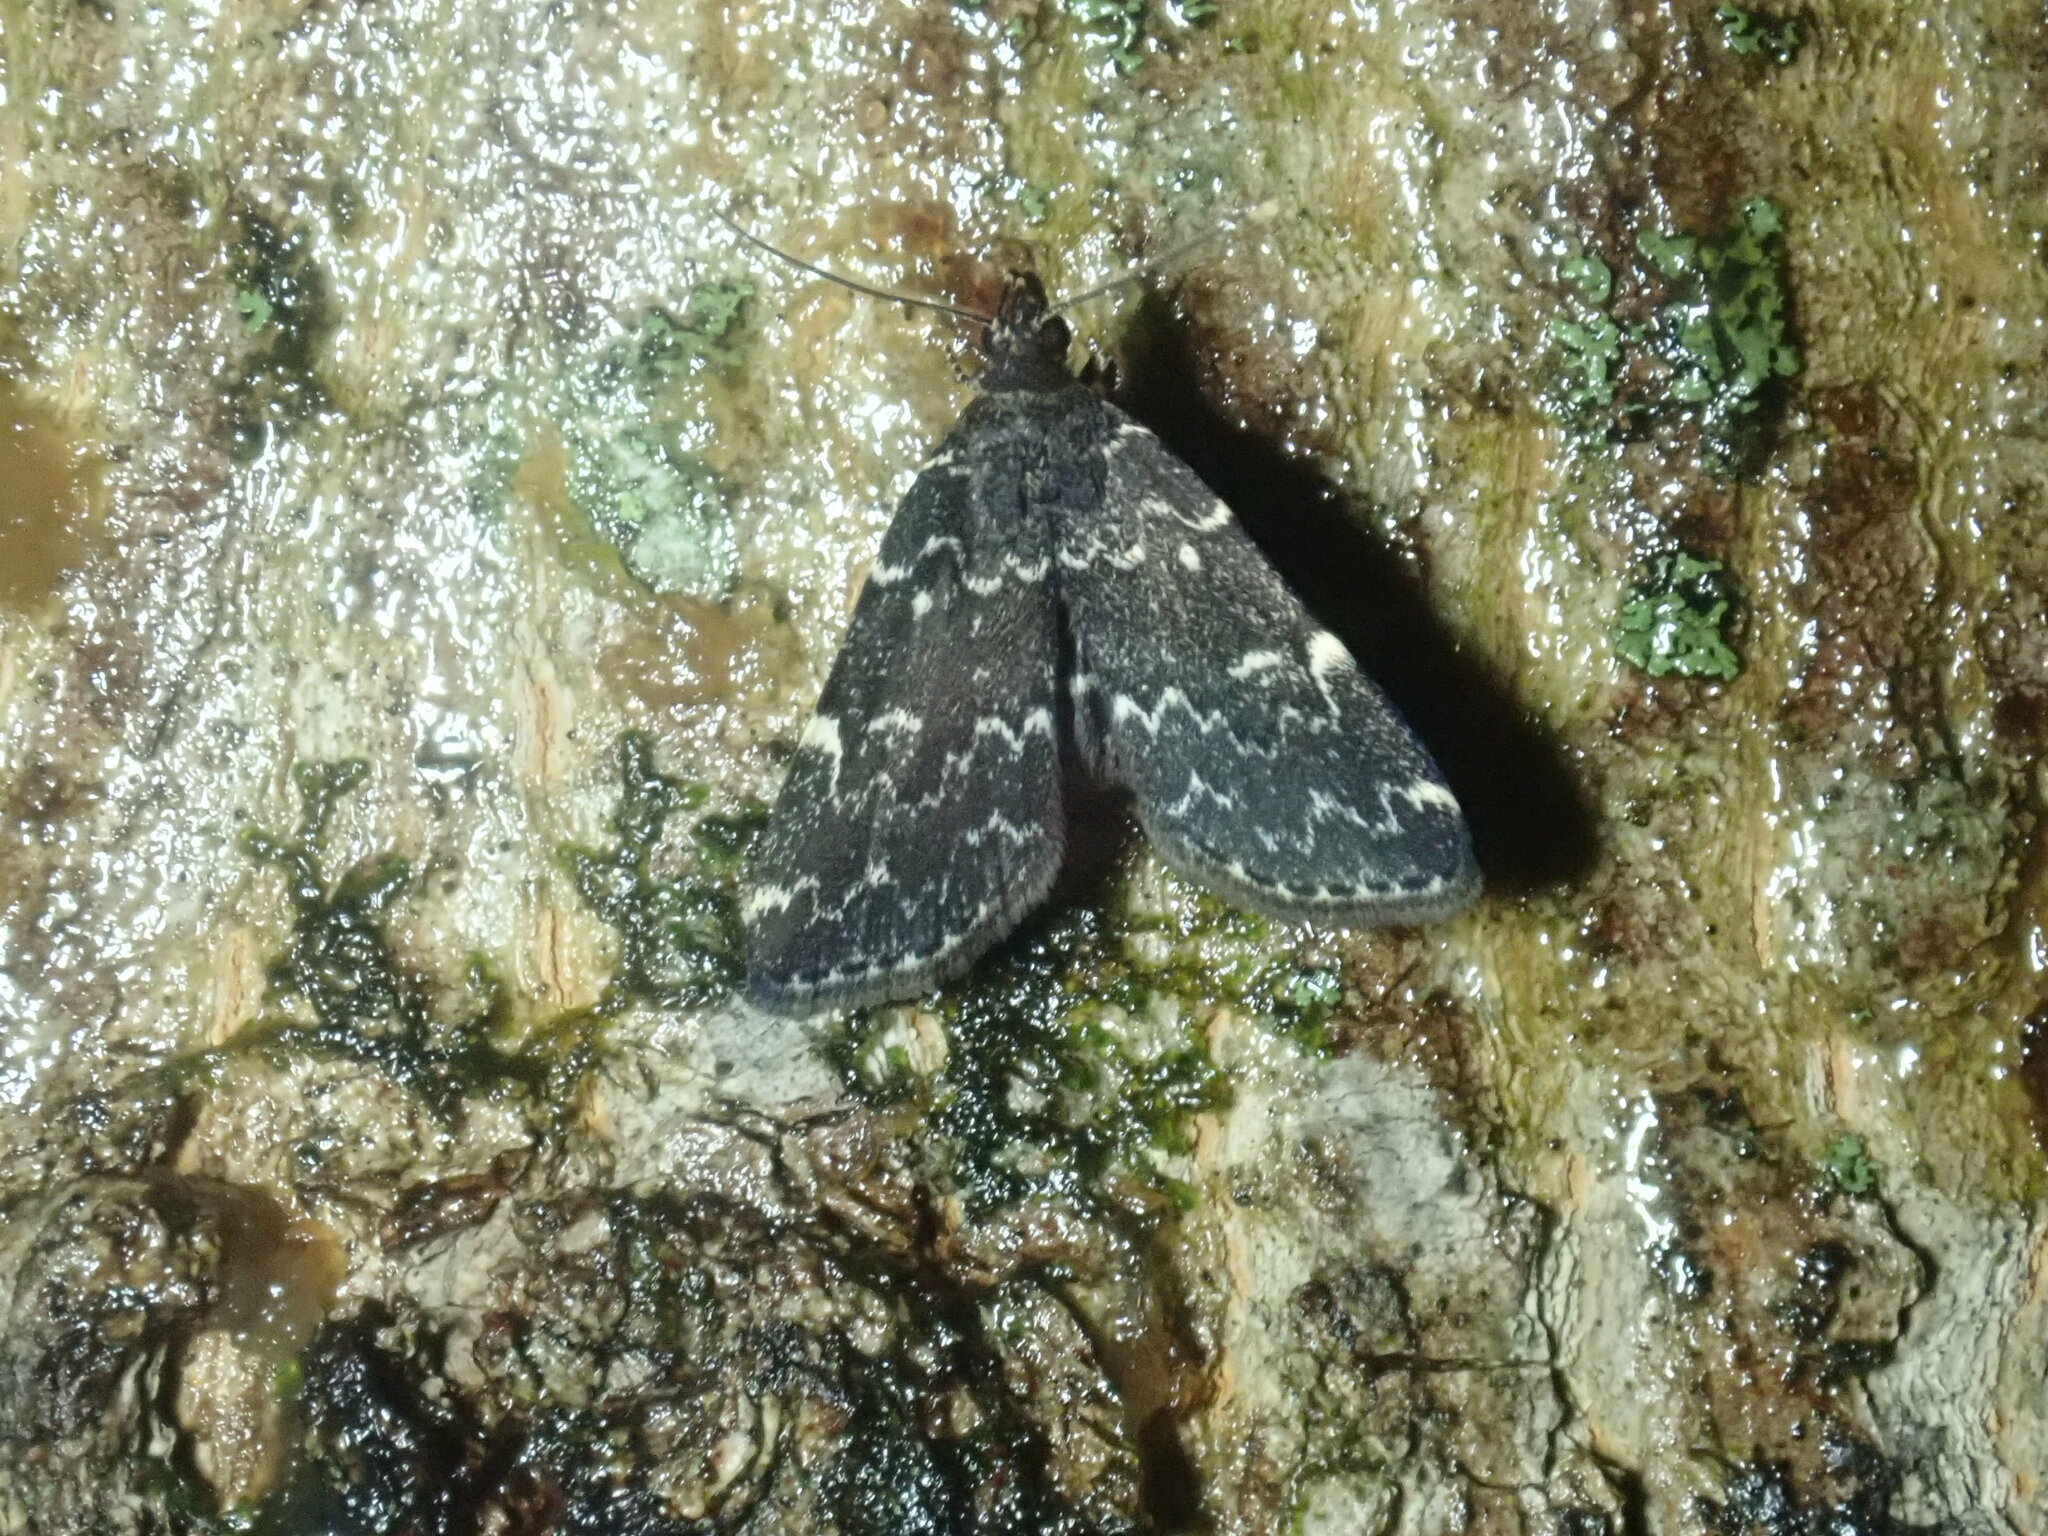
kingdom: Animalia
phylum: Arthropoda
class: Insecta
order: Lepidoptera
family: Erebidae
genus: Idia
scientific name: Idia scobialis
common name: Smoky idia moth
